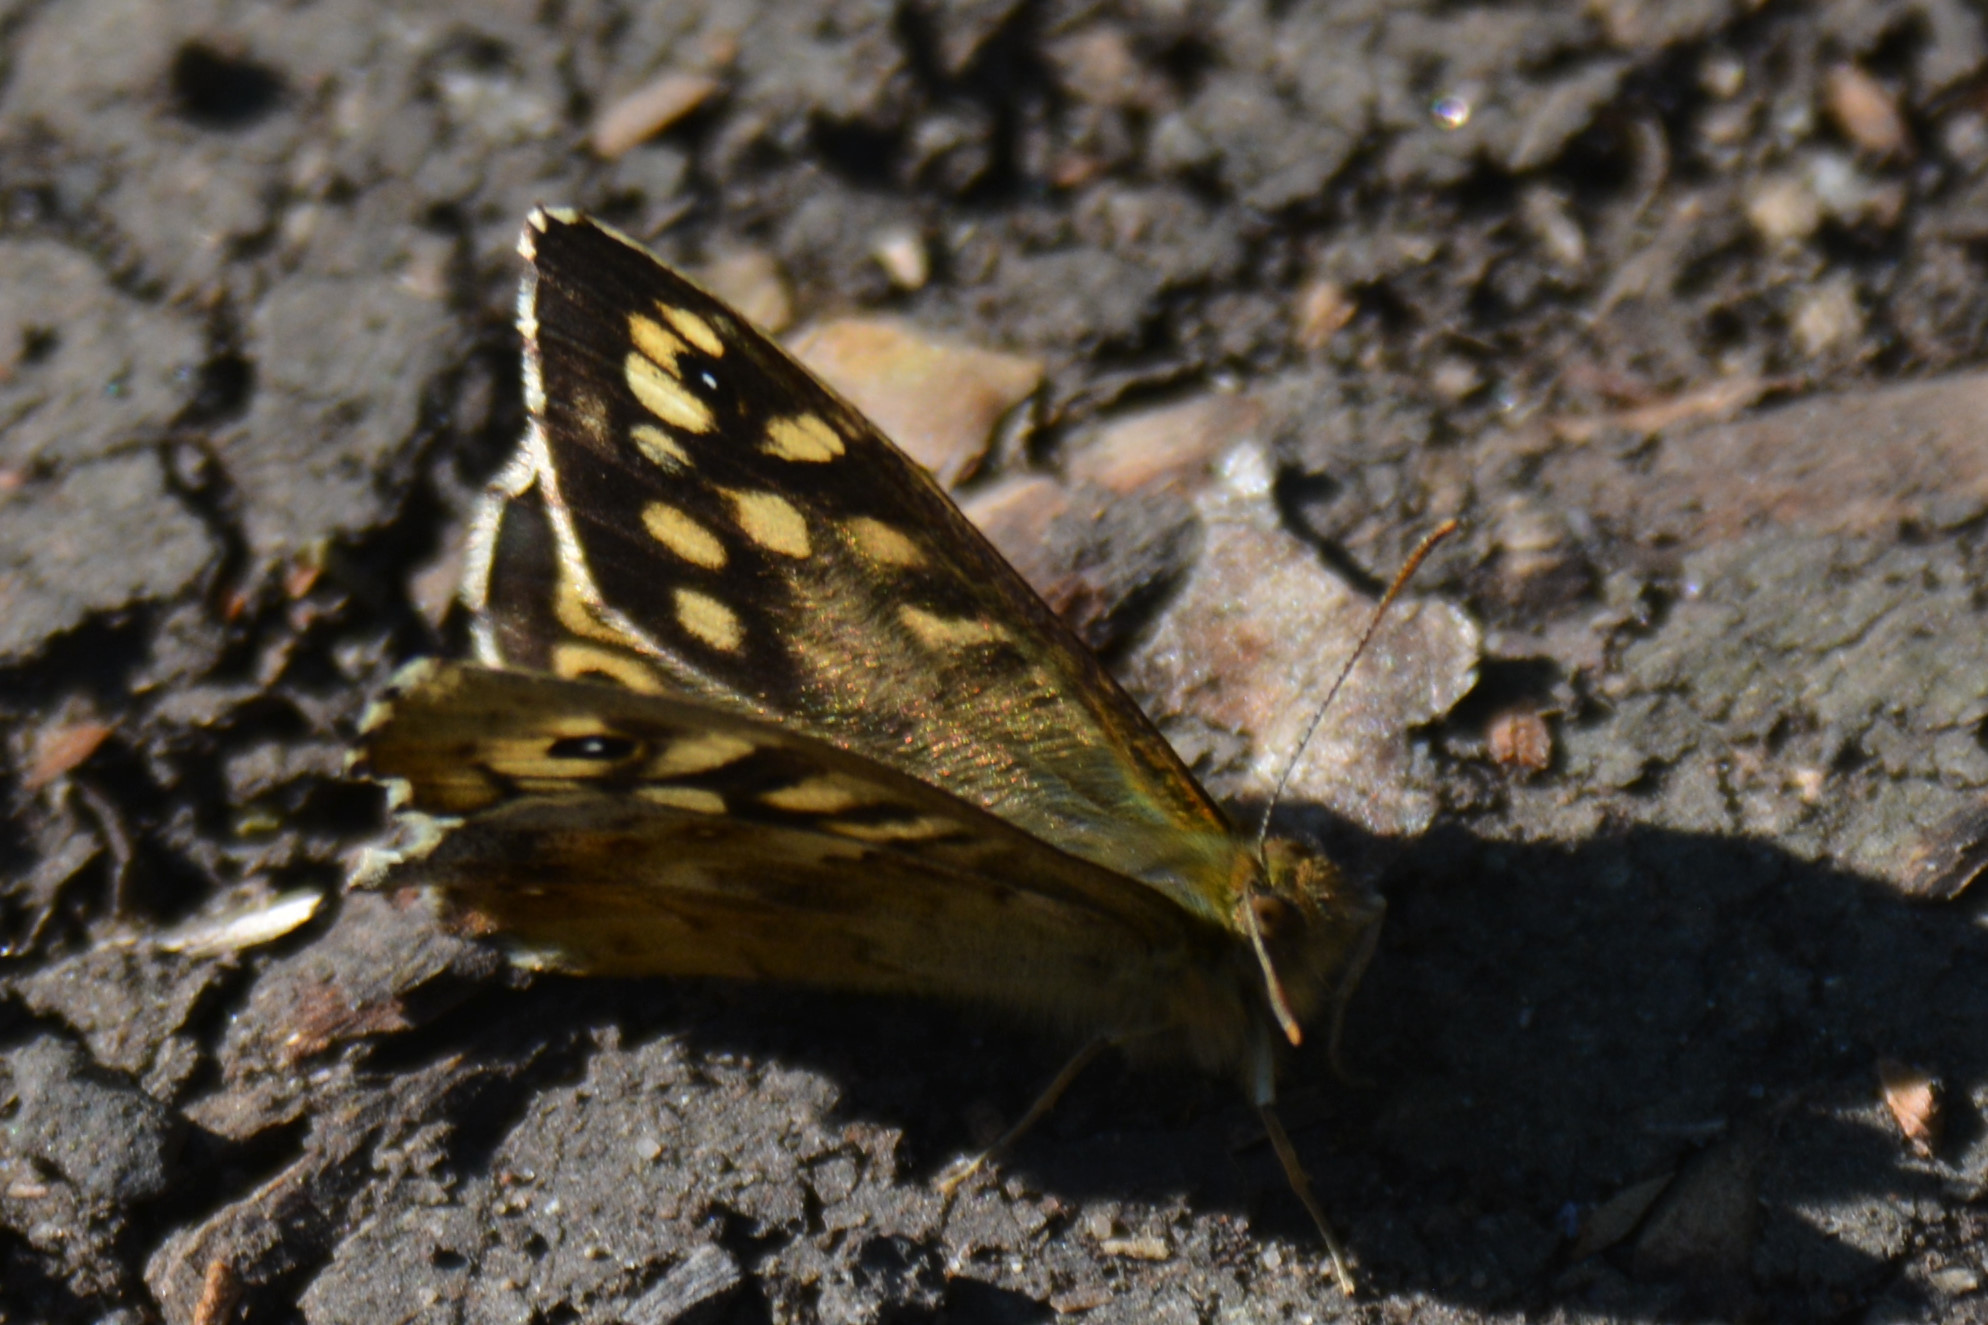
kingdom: Animalia
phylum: Arthropoda
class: Insecta
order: Lepidoptera
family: Nymphalidae
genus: Pararge
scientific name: Pararge aegeria
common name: Speckled wood
